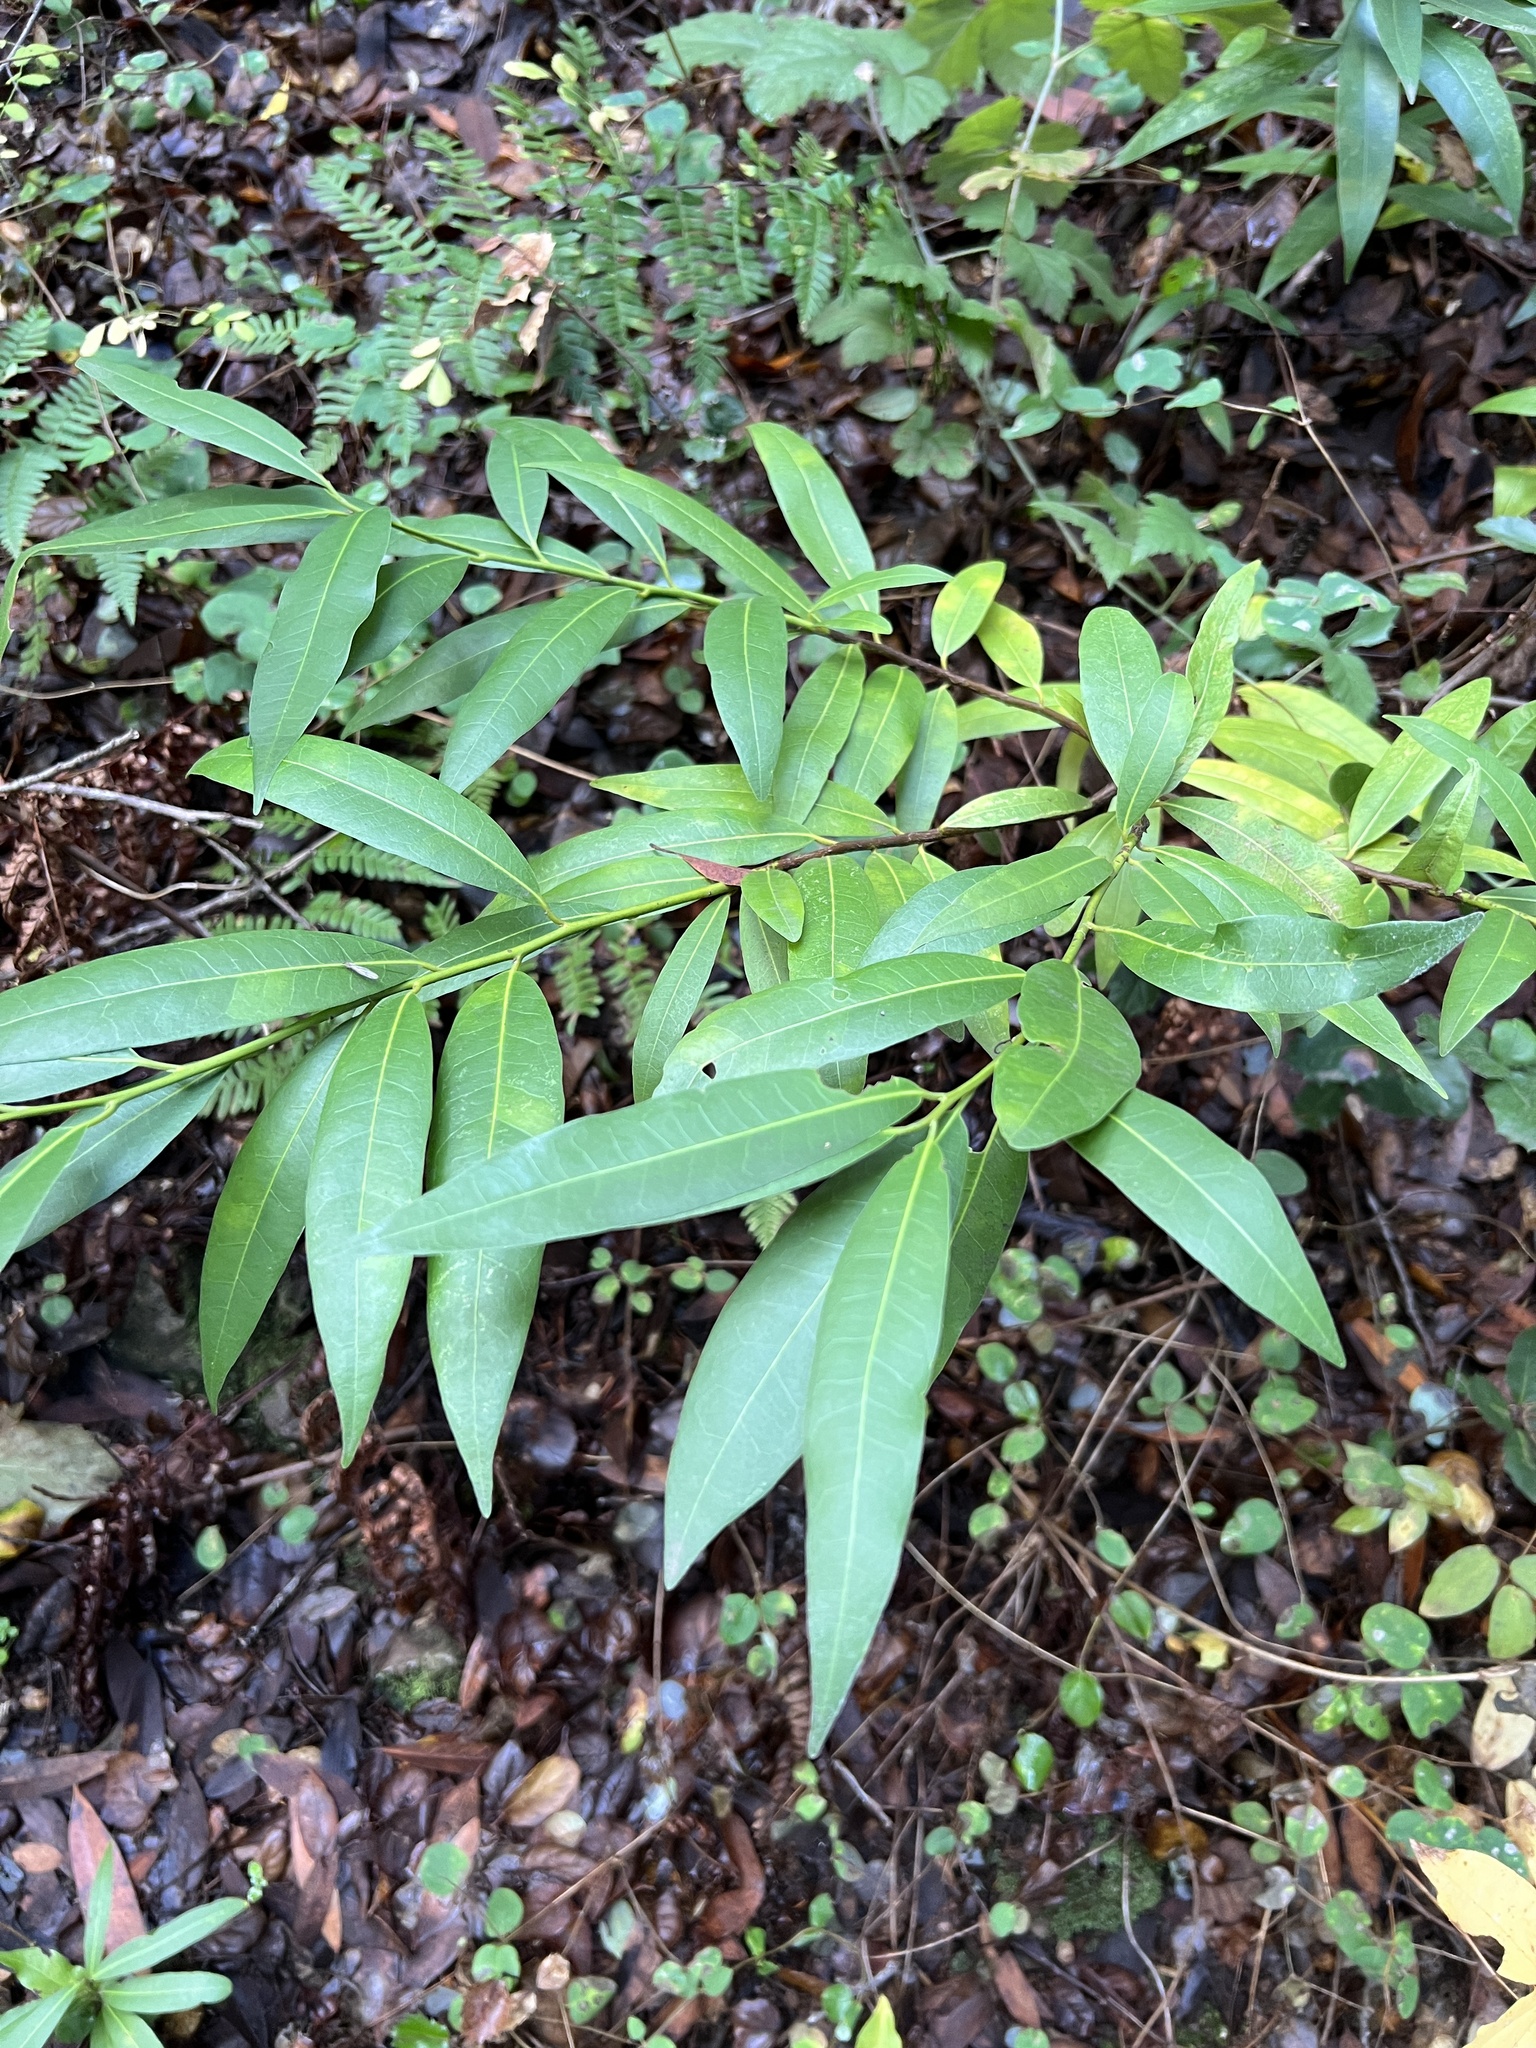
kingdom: Plantae
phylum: Tracheophyta
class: Magnoliopsida
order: Laurales
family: Lauraceae
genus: Umbellularia
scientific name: Umbellularia californica
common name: California bay
